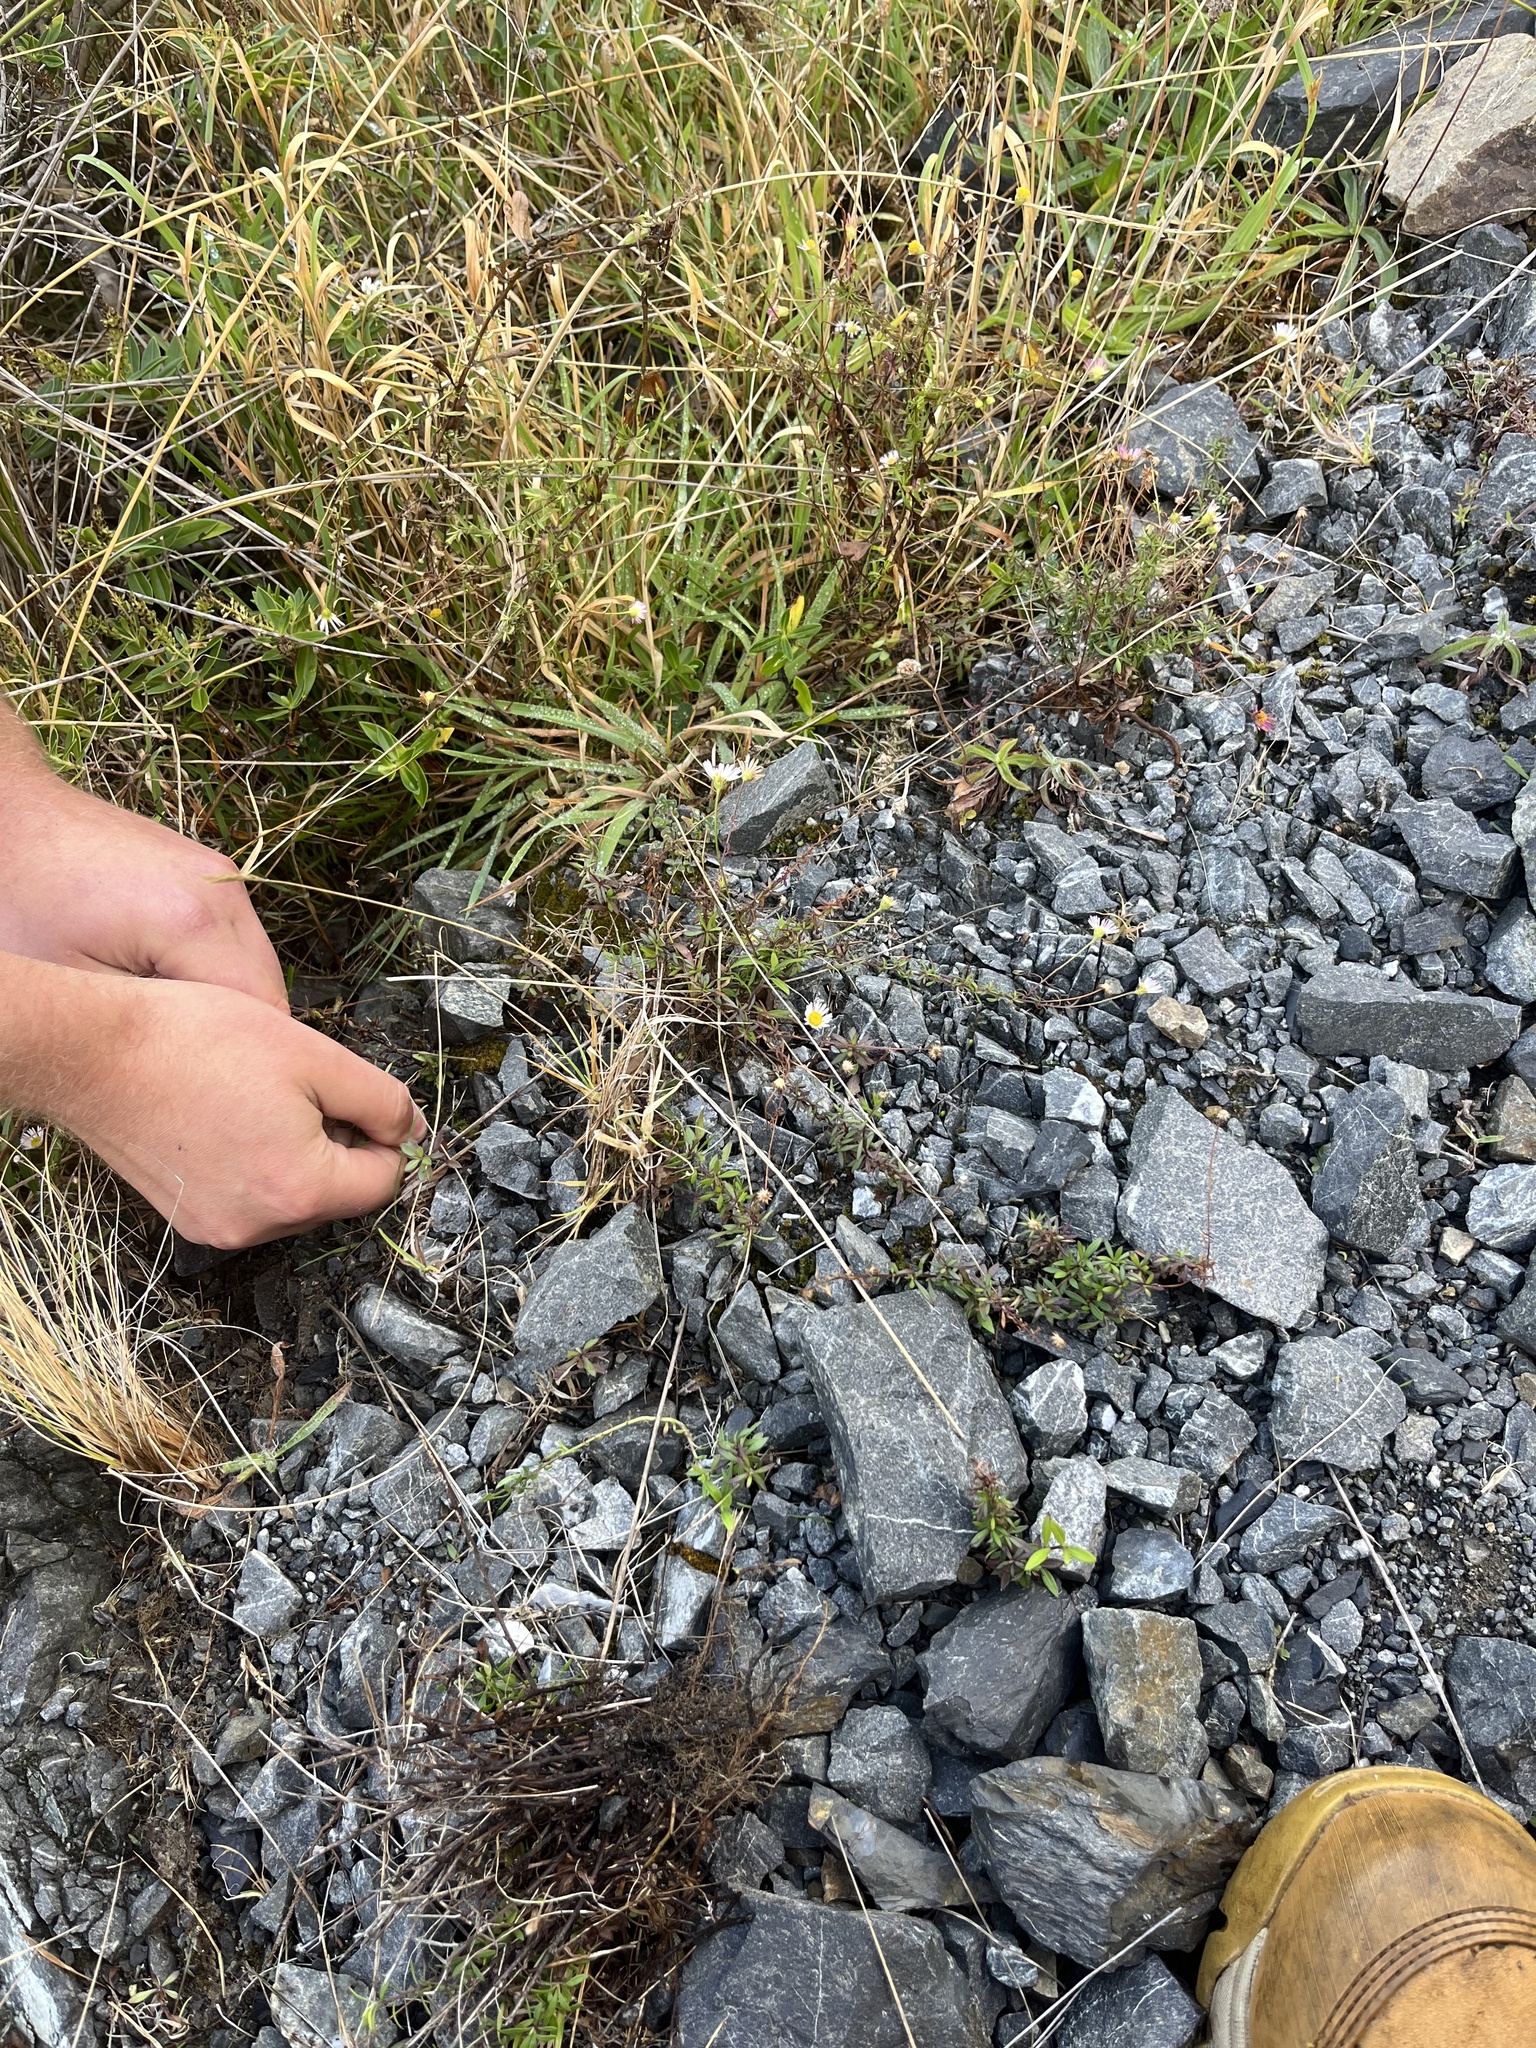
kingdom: Plantae
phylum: Tracheophyta
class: Magnoliopsida
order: Asterales
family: Asteraceae
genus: Erigeron
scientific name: Erigeron karvinskianus
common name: Mexican fleabane
